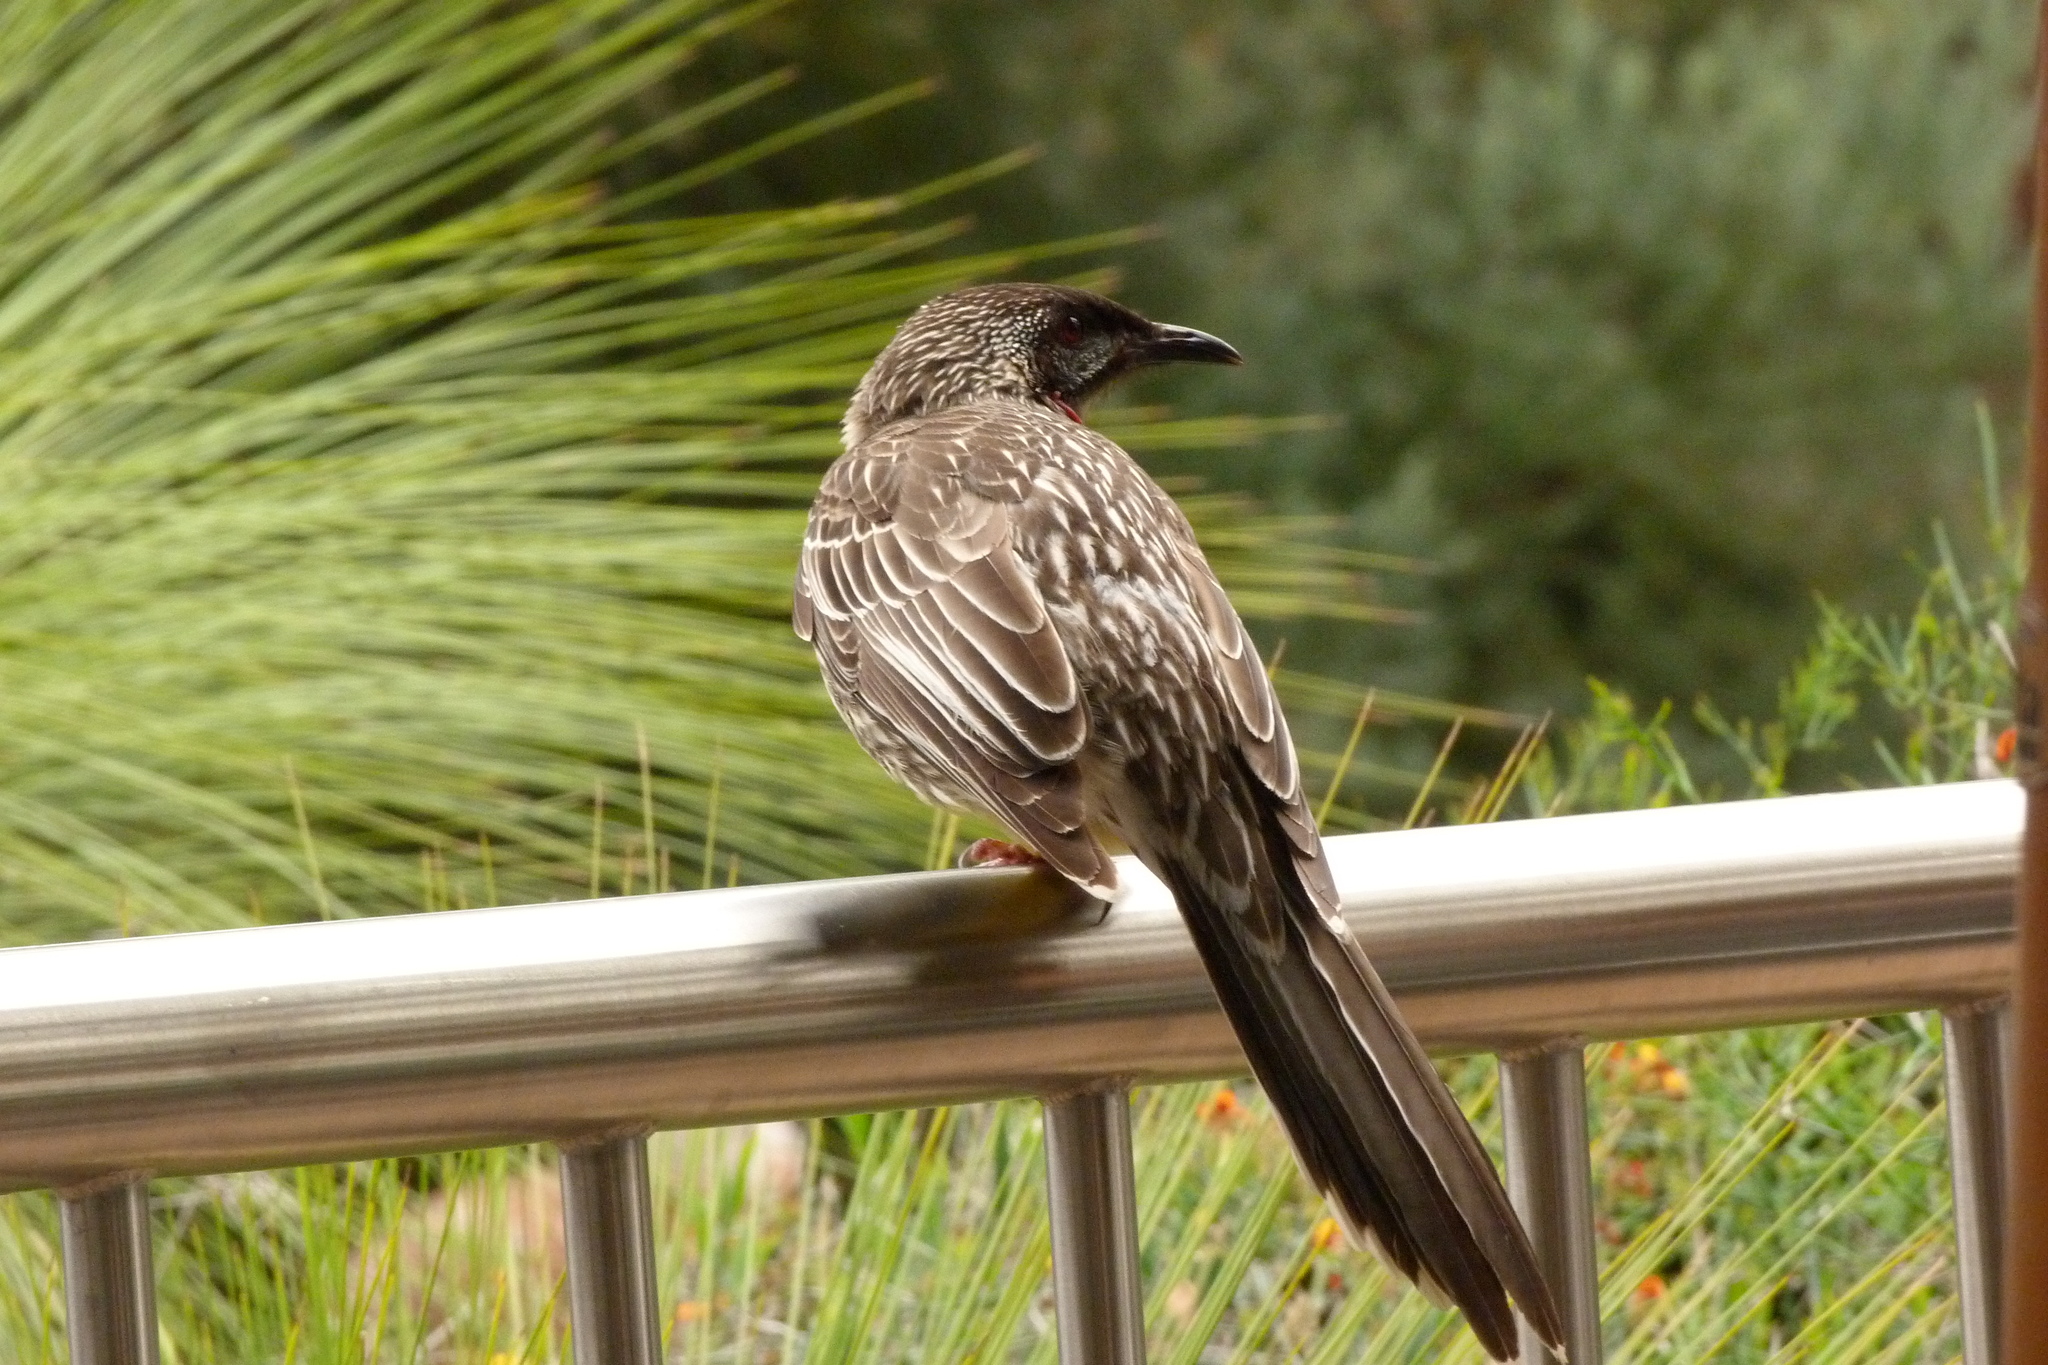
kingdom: Animalia
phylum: Chordata
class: Aves
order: Passeriformes
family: Meliphagidae
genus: Anthochaera
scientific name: Anthochaera carunculata
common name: Red wattlebird
